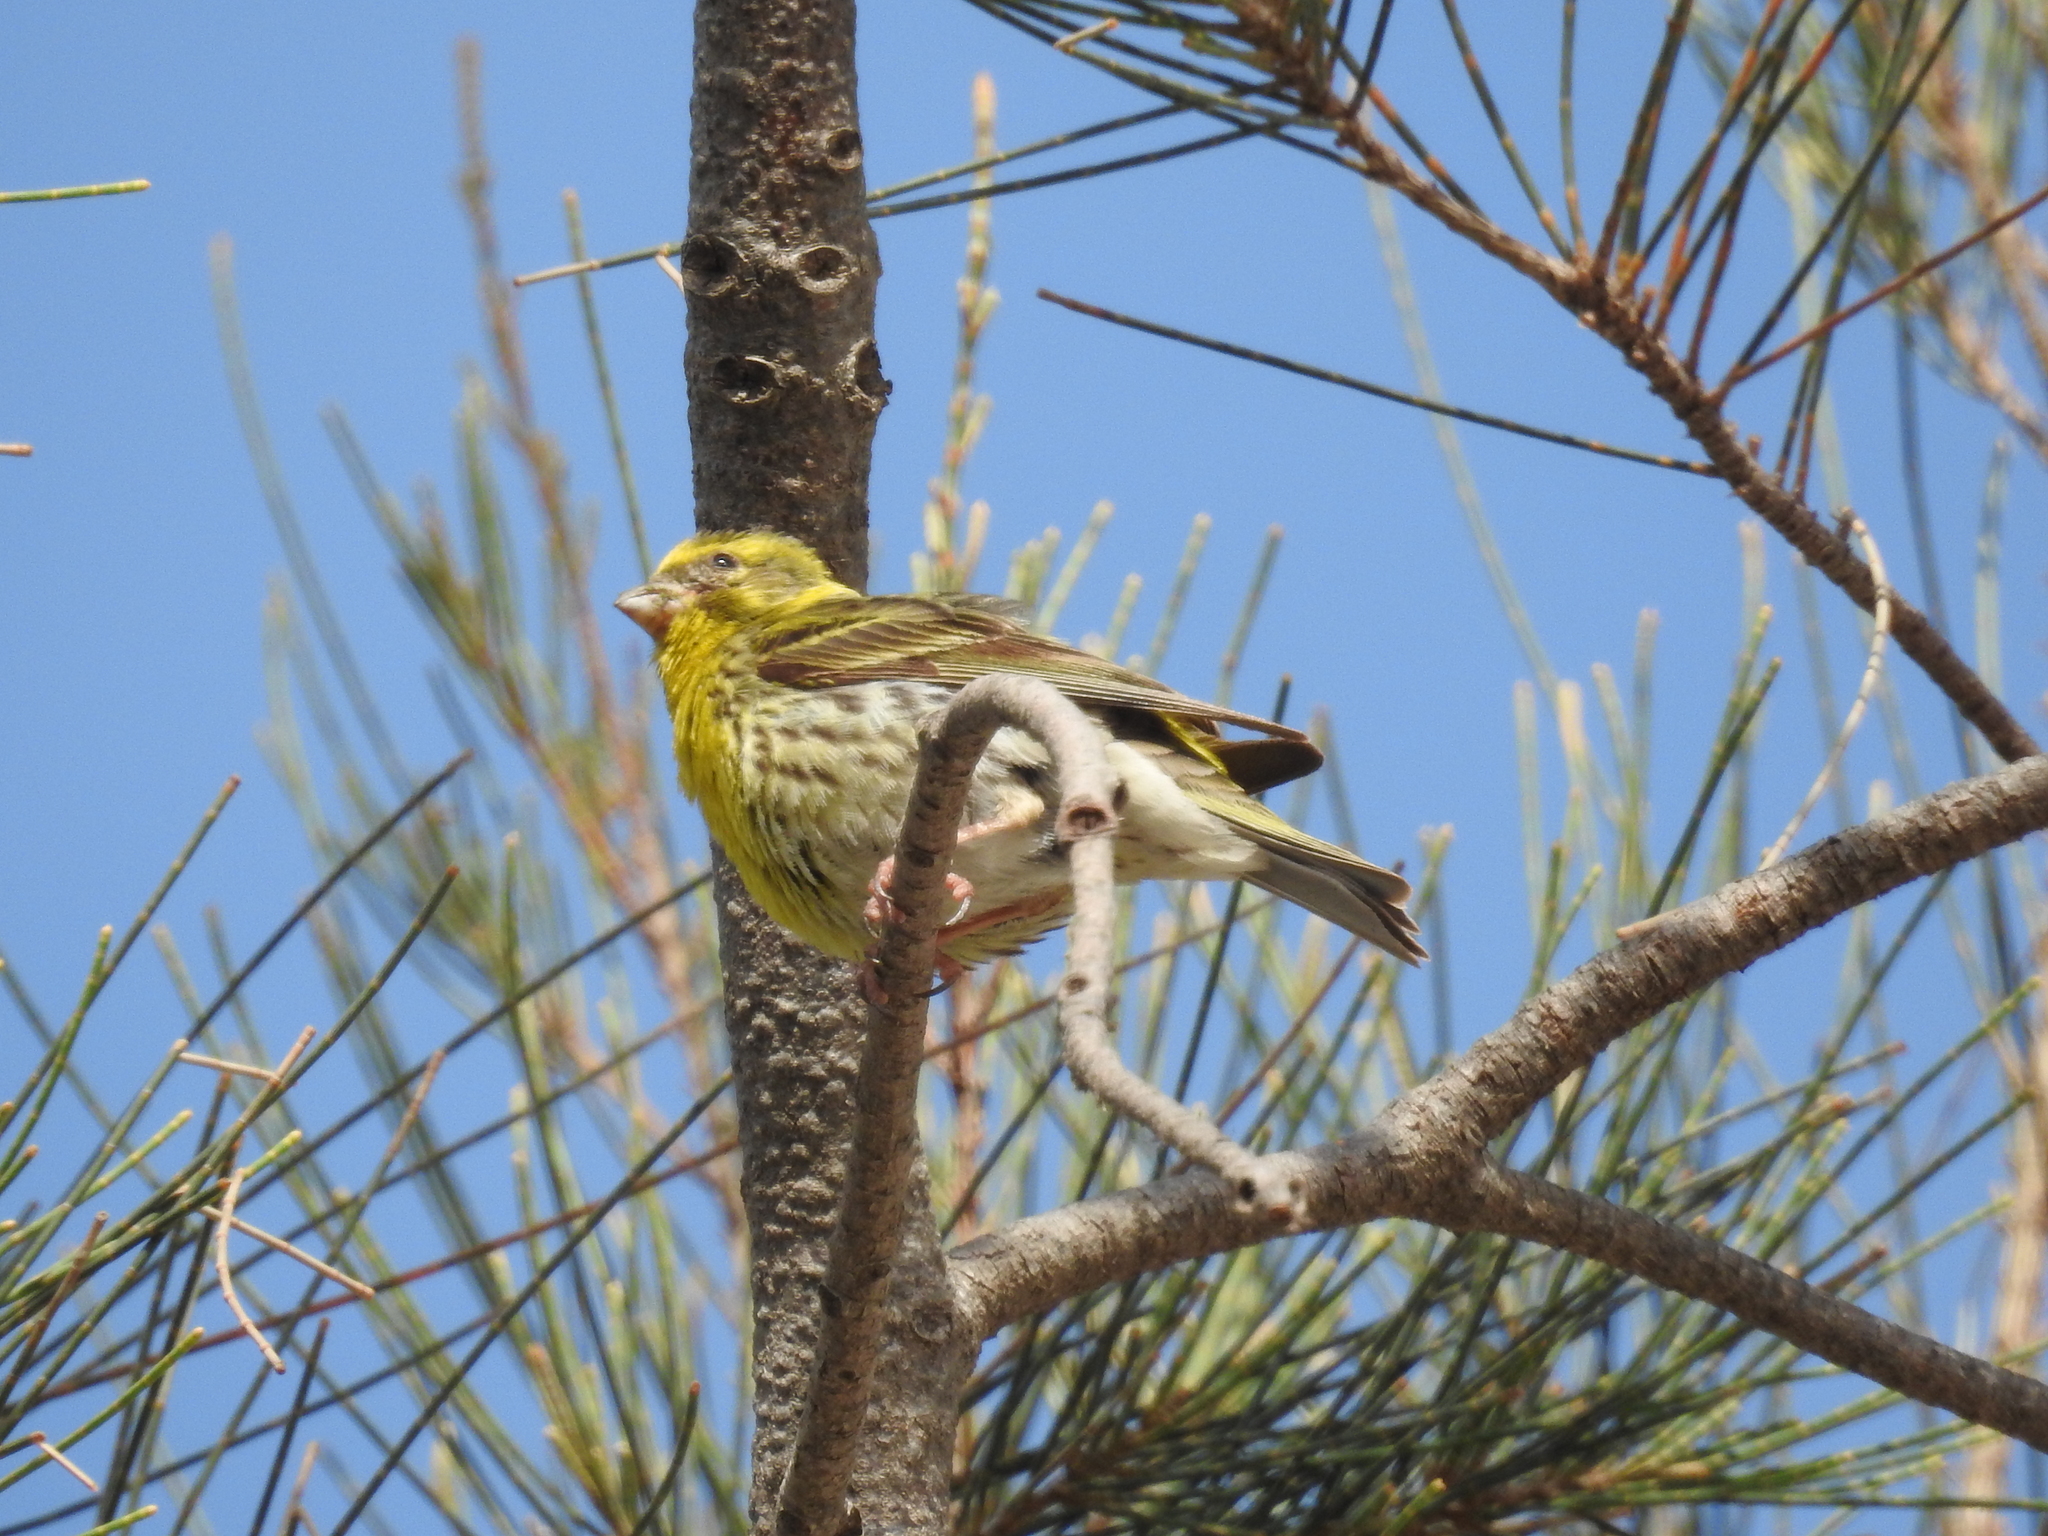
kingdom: Animalia
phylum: Chordata
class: Aves
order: Passeriformes
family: Fringillidae
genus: Serinus
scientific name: Serinus serinus
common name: European serin
